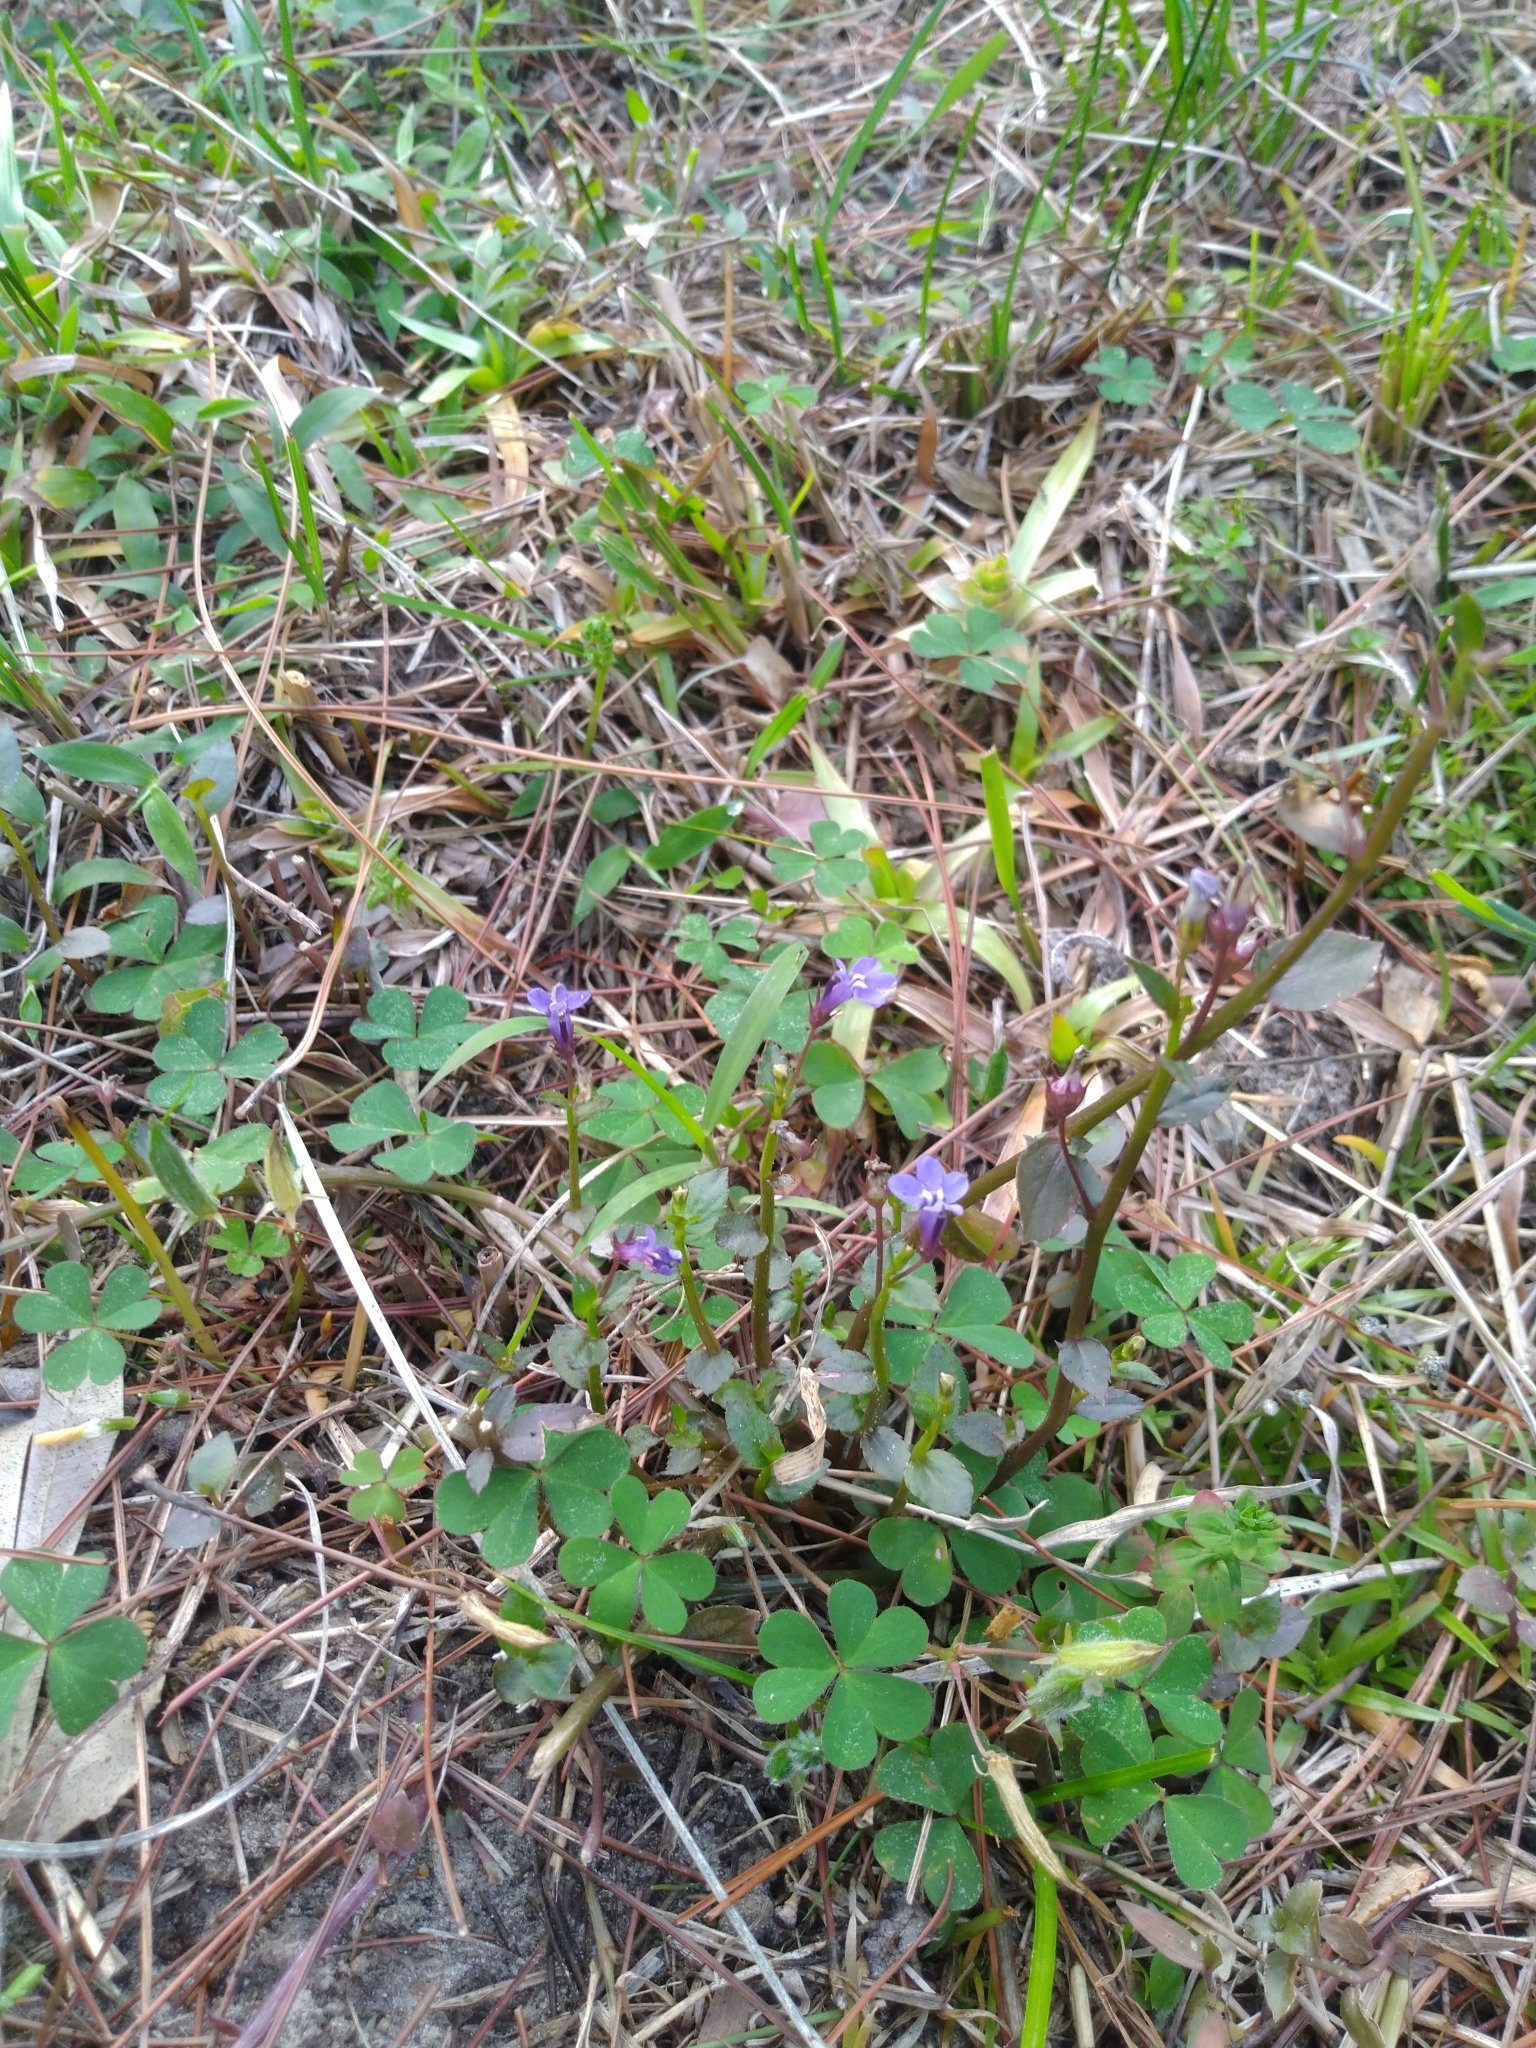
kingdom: Plantae
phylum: Tracheophyta
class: Magnoliopsida
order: Asterales
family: Campanulaceae
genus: Lobelia
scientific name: Lobelia alsinoides
